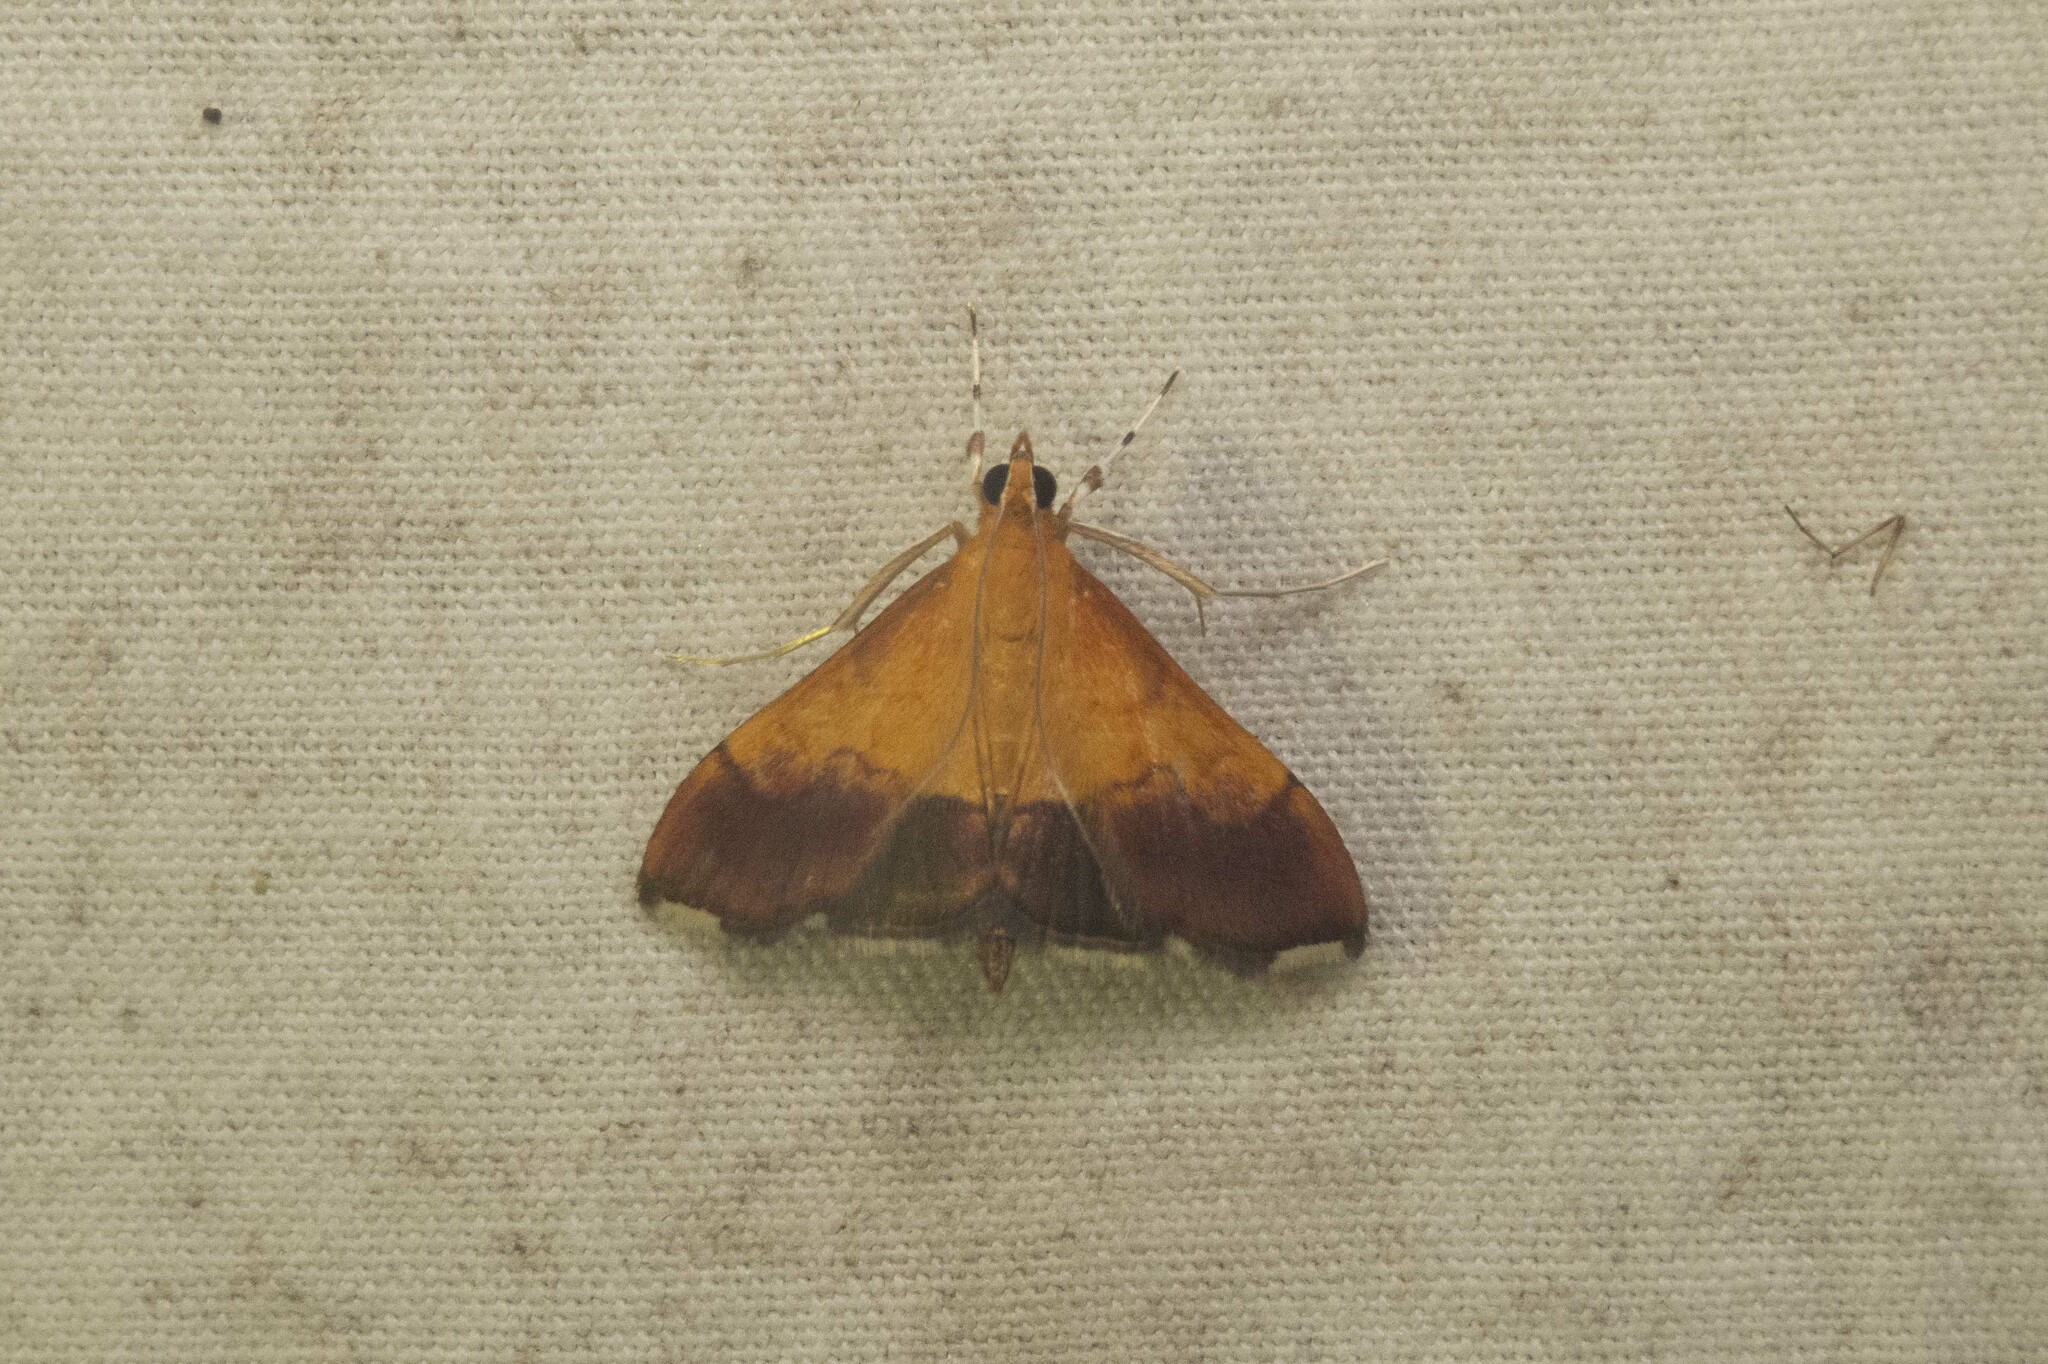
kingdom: Animalia
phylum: Arthropoda
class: Insecta
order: Lepidoptera
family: Crambidae
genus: Pyrausta
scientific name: Pyrausta bicoloralis
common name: Bicolored pyrausta moth
